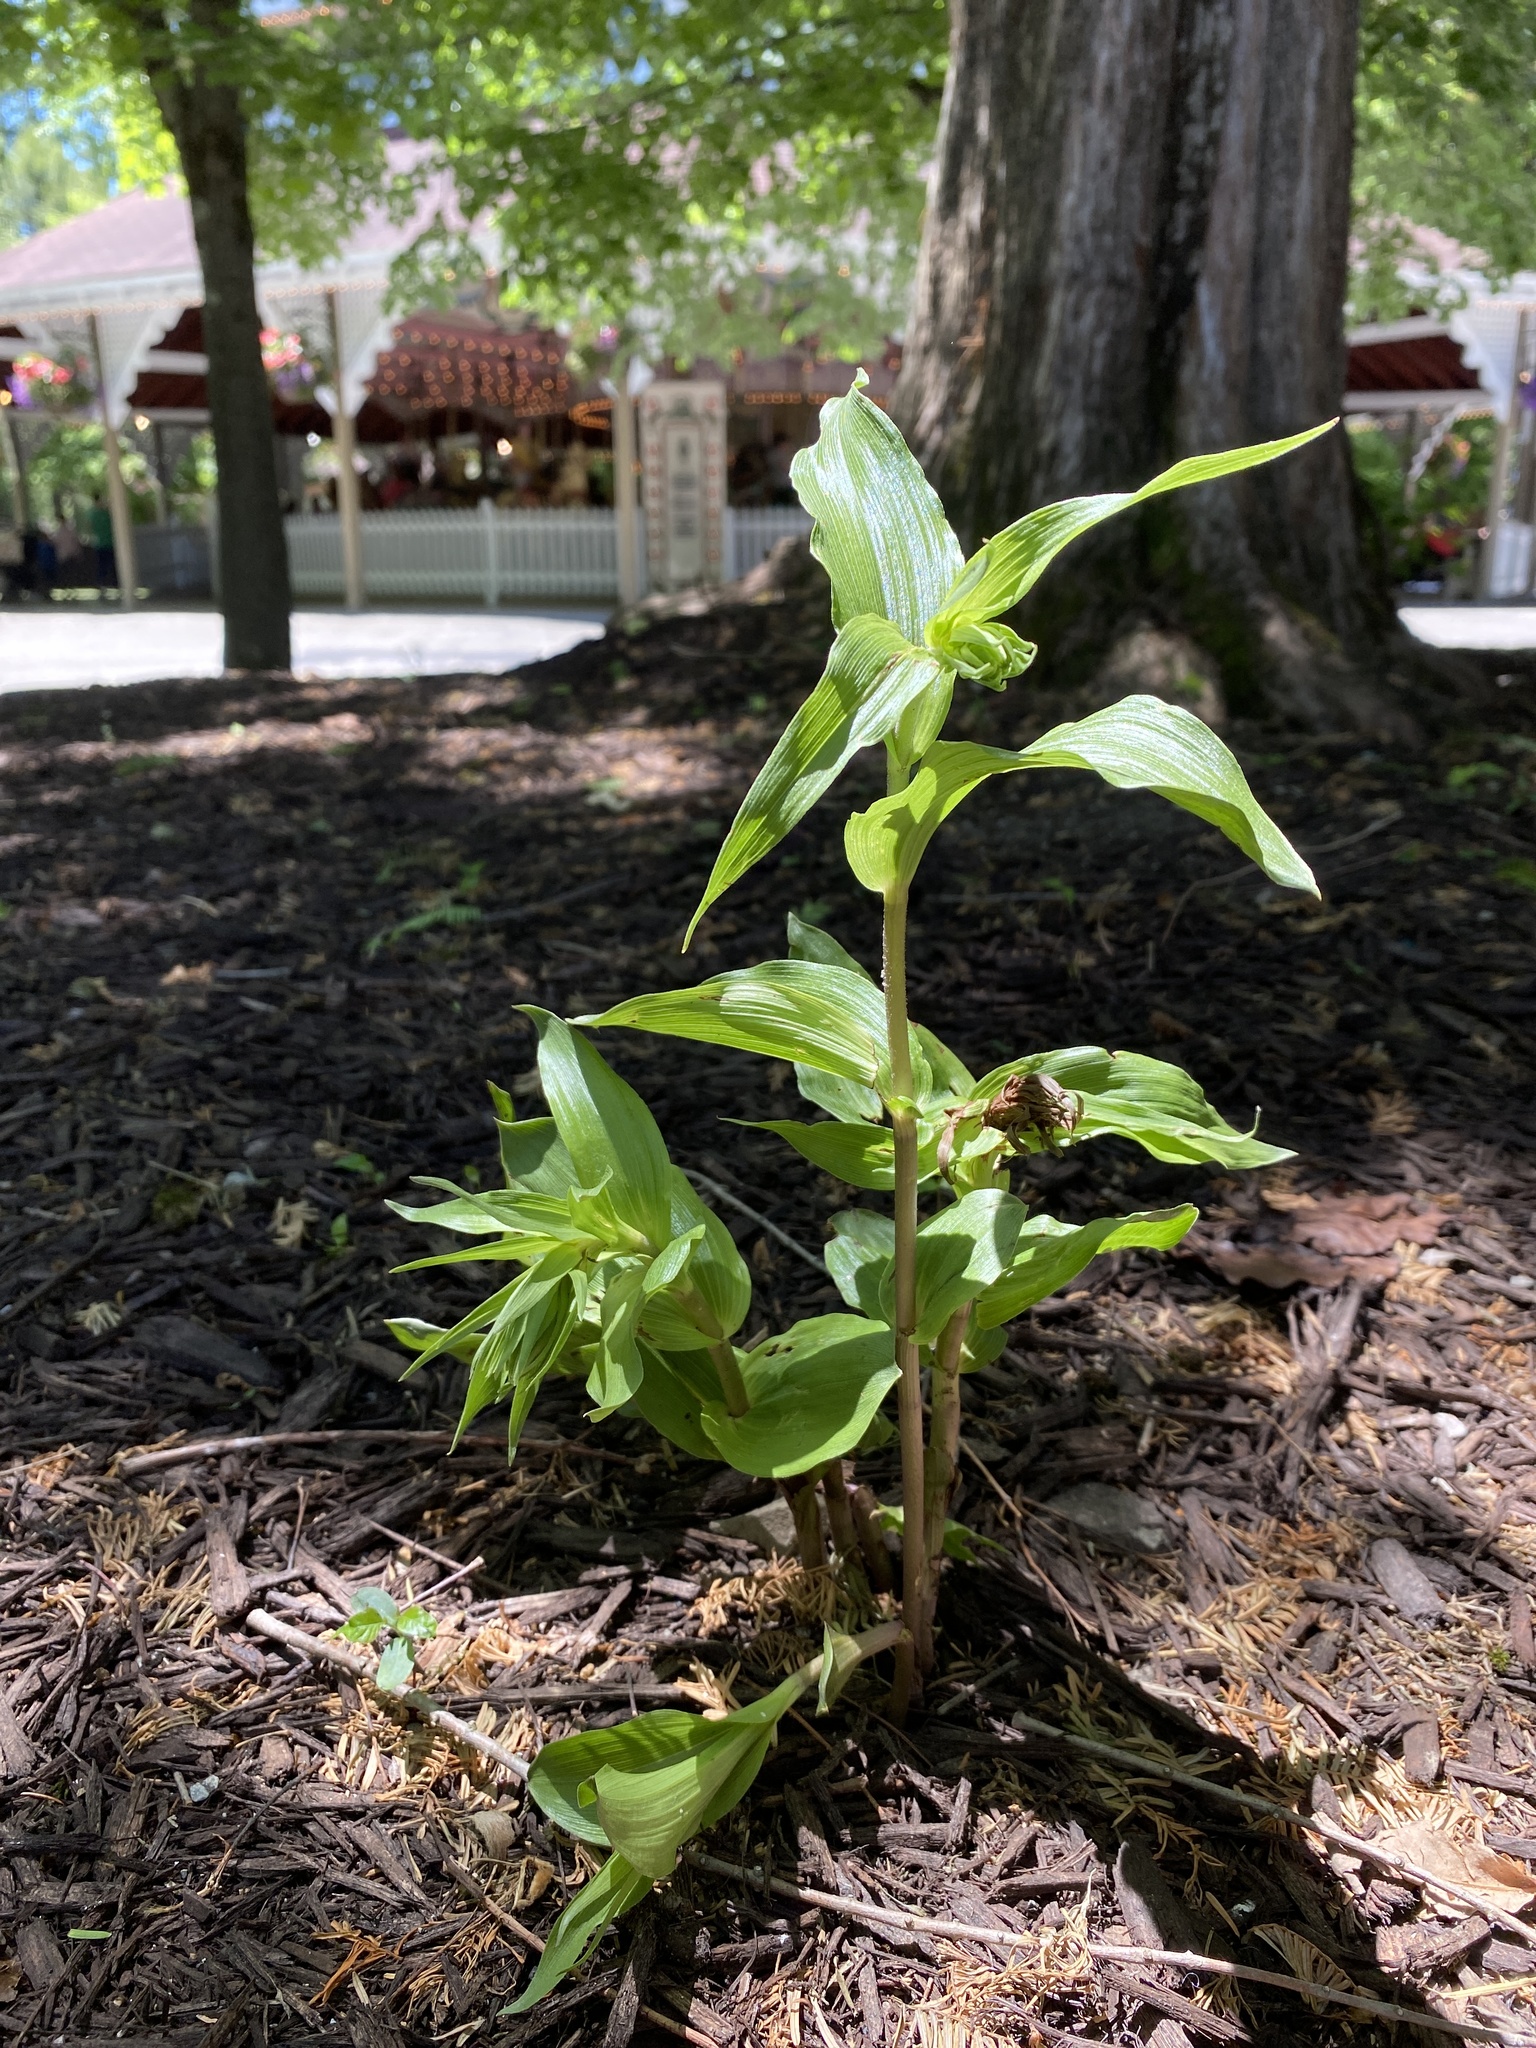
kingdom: Plantae
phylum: Tracheophyta
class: Liliopsida
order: Asparagales
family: Orchidaceae
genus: Epipactis
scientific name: Epipactis helleborine
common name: Broad-leaved helleborine
